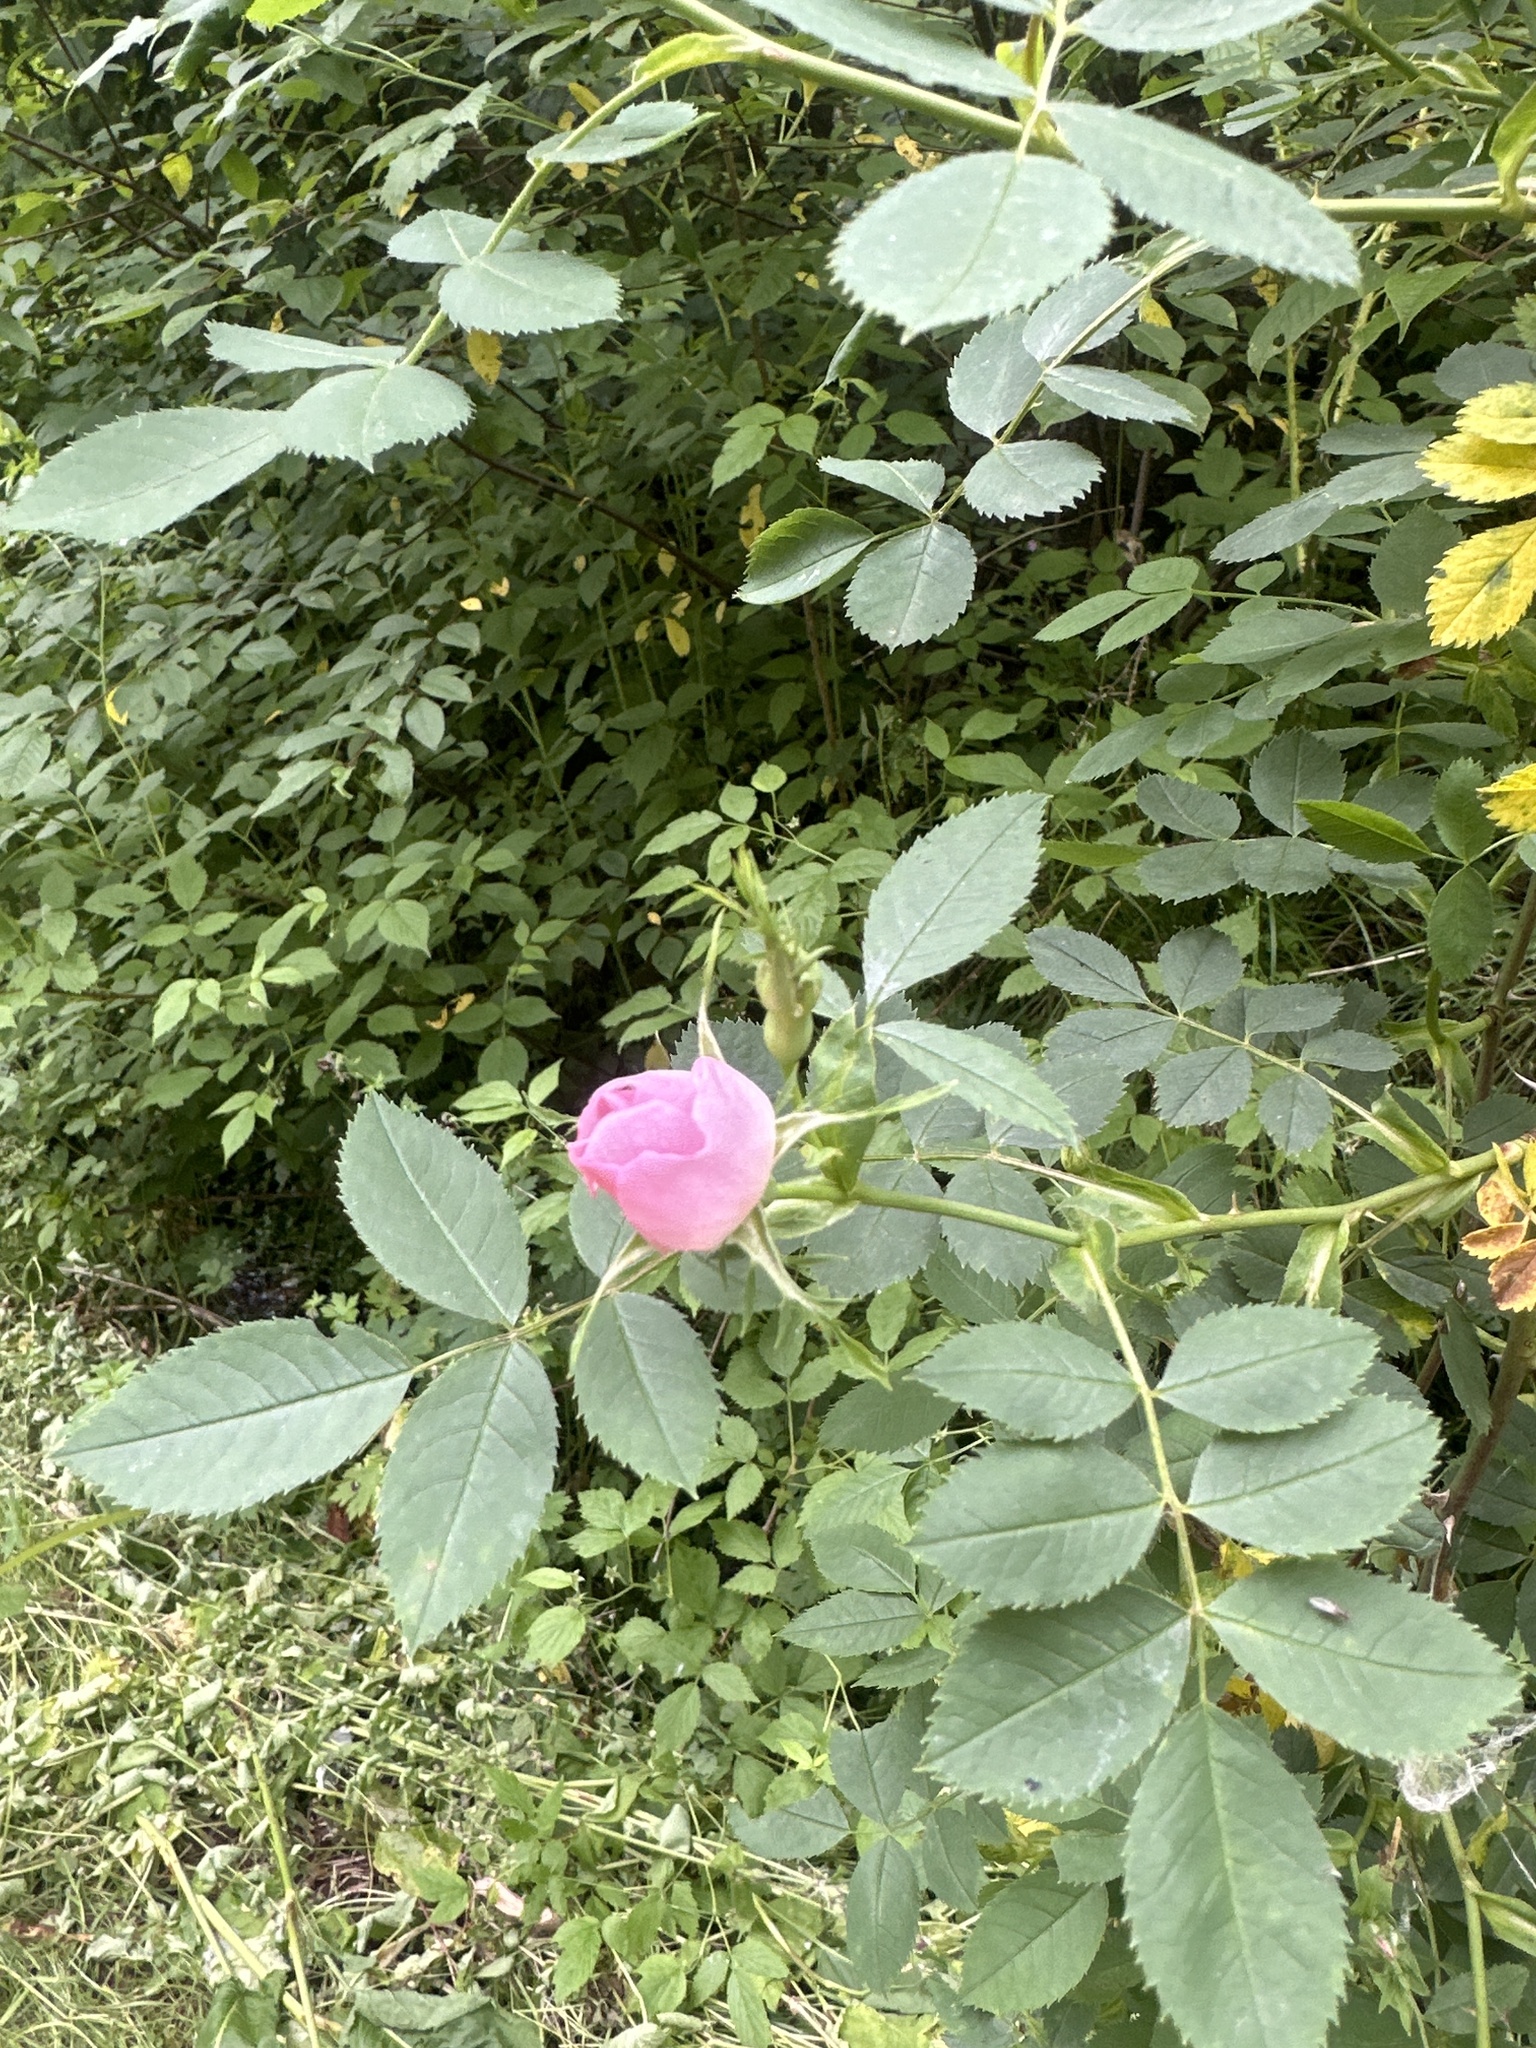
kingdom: Plantae
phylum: Tracheophyta
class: Magnoliopsida
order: Rosales
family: Rosaceae
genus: Rosa
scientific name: Rosa canina
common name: Dog rose
